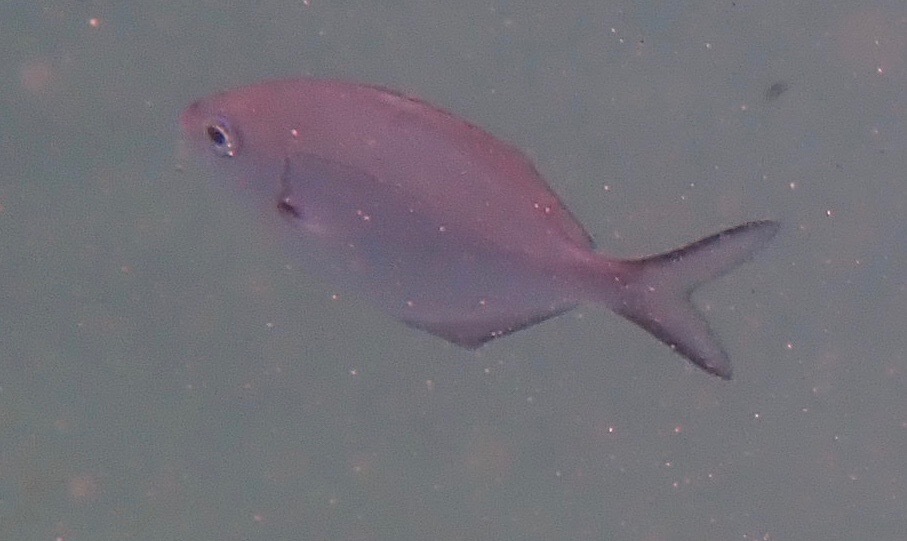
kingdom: Animalia
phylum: Chordata
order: Perciformes
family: Kyphosidae
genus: Scorpis
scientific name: Scorpis lineolata
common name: Sweep
